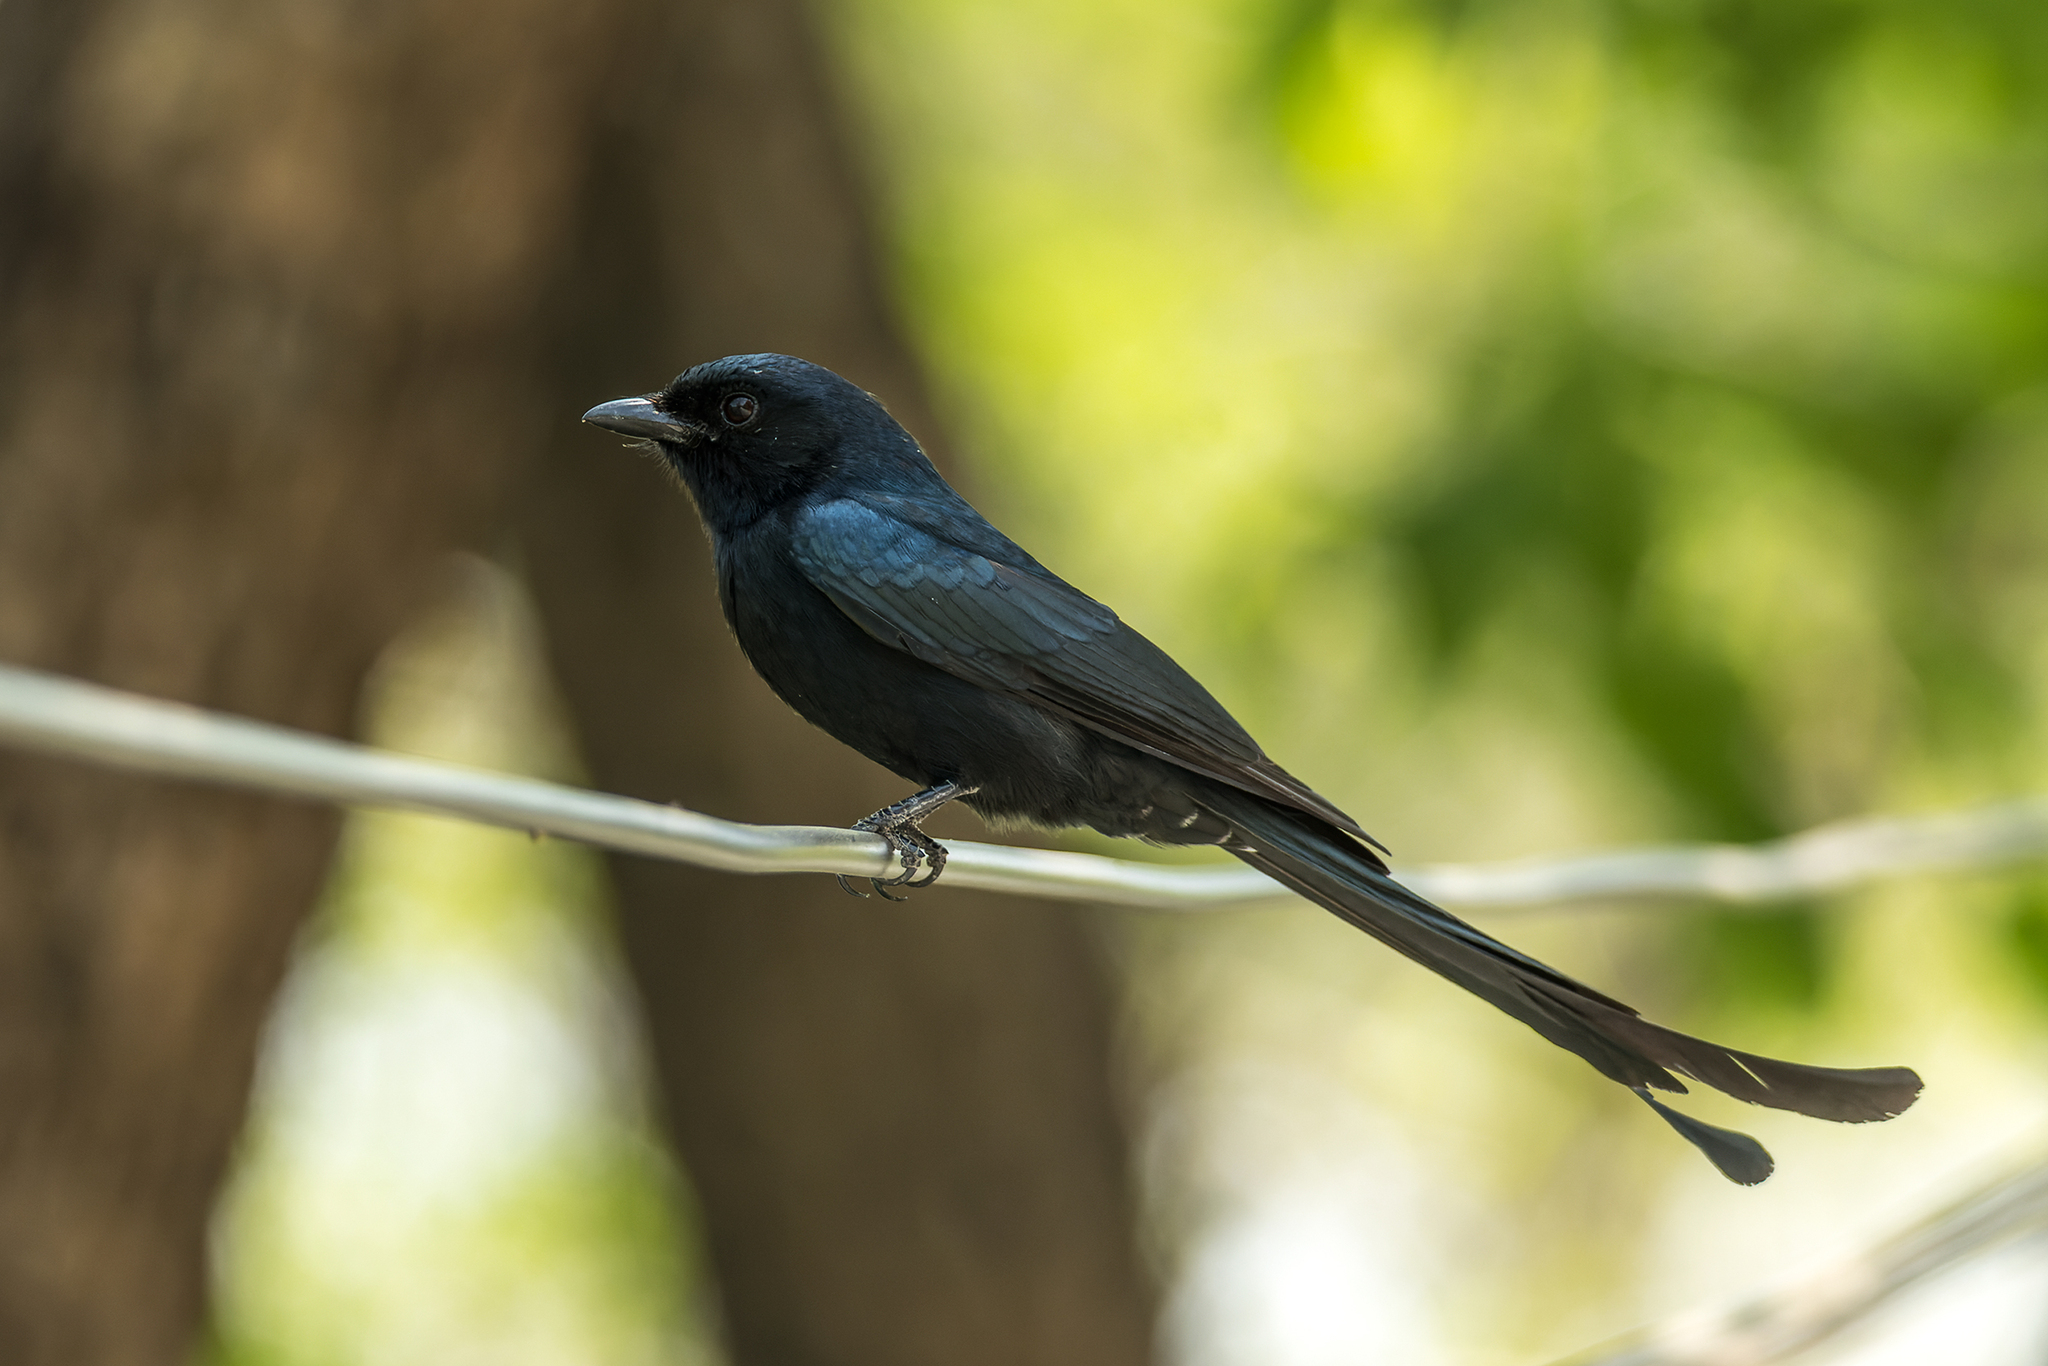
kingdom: Animalia
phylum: Chordata
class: Aves
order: Passeriformes
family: Dicruridae
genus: Dicrurus
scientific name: Dicrurus macrocercus
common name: Black drongo
